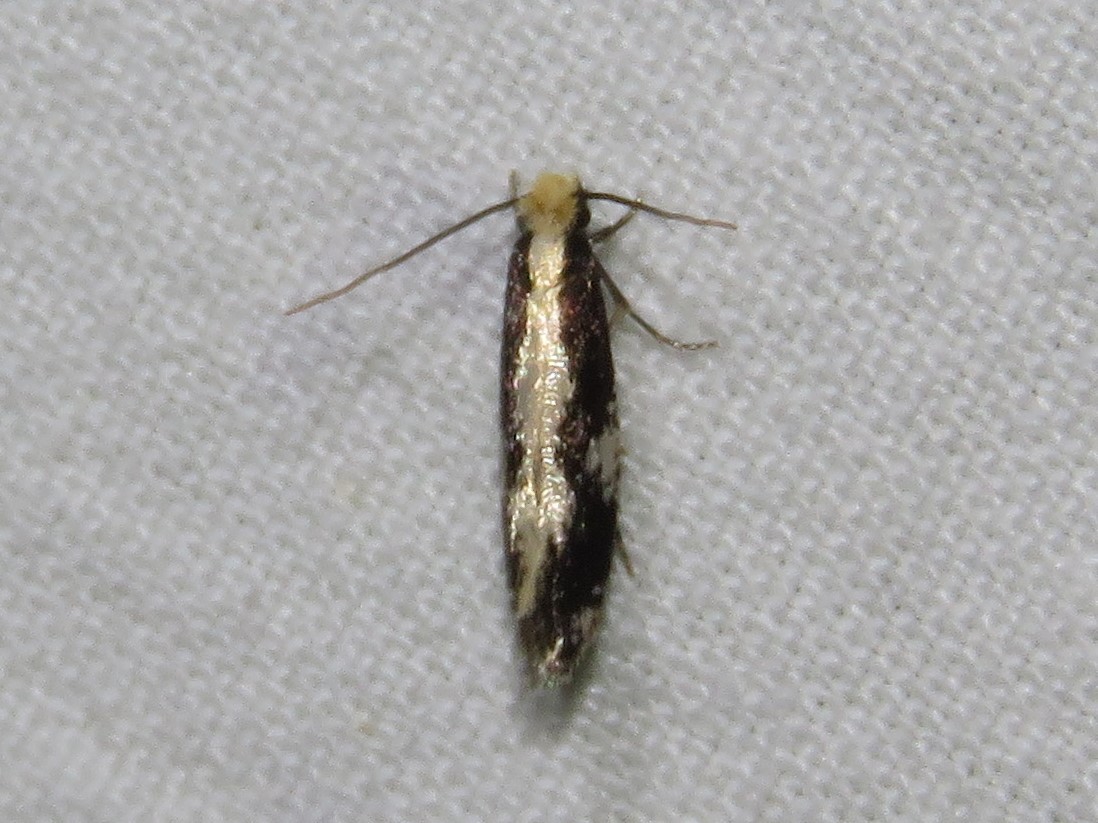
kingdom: Animalia
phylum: Arthropoda
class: Insecta
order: Lepidoptera
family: Tineidae
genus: Monopis
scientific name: Monopis dorsistrigella
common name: Skunkback monopis moth
